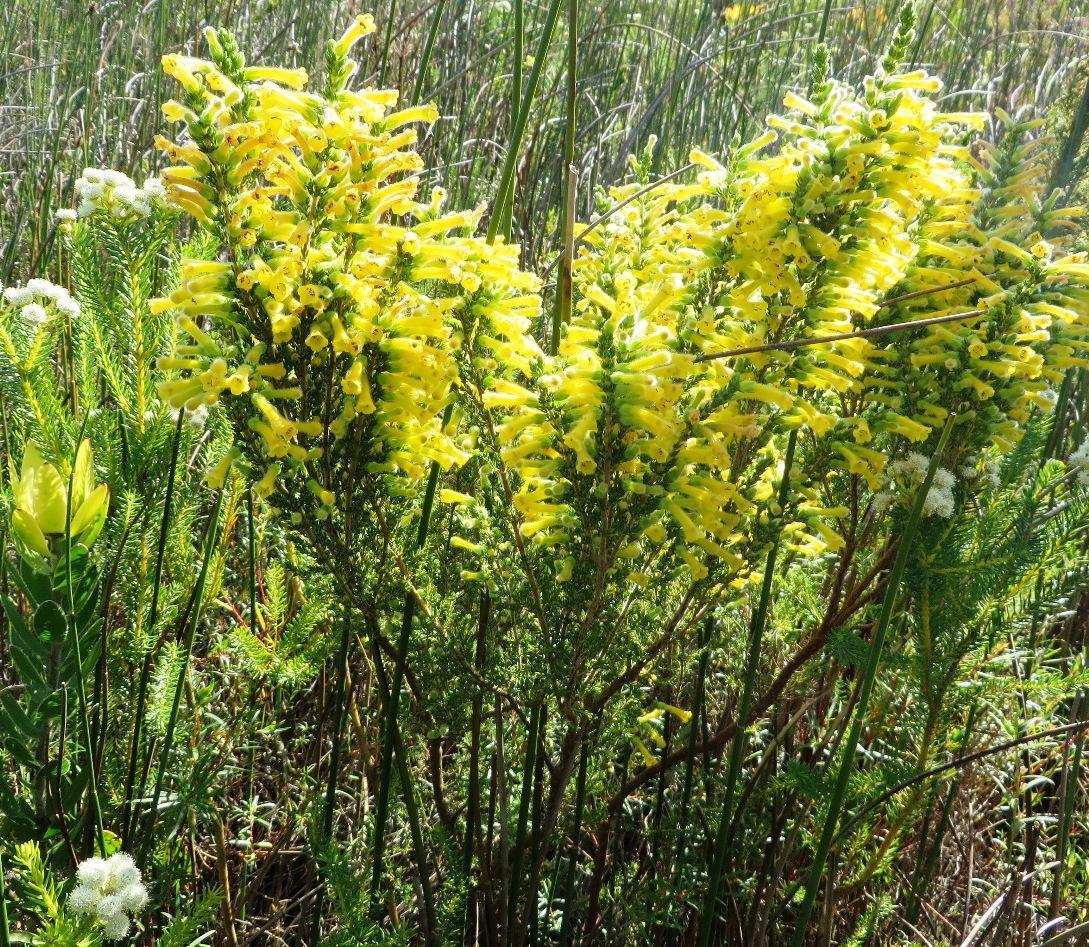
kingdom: Plantae
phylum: Tracheophyta
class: Magnoliopsida
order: Ericales
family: Ericaceae
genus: Erica
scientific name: Erica stagnalis
